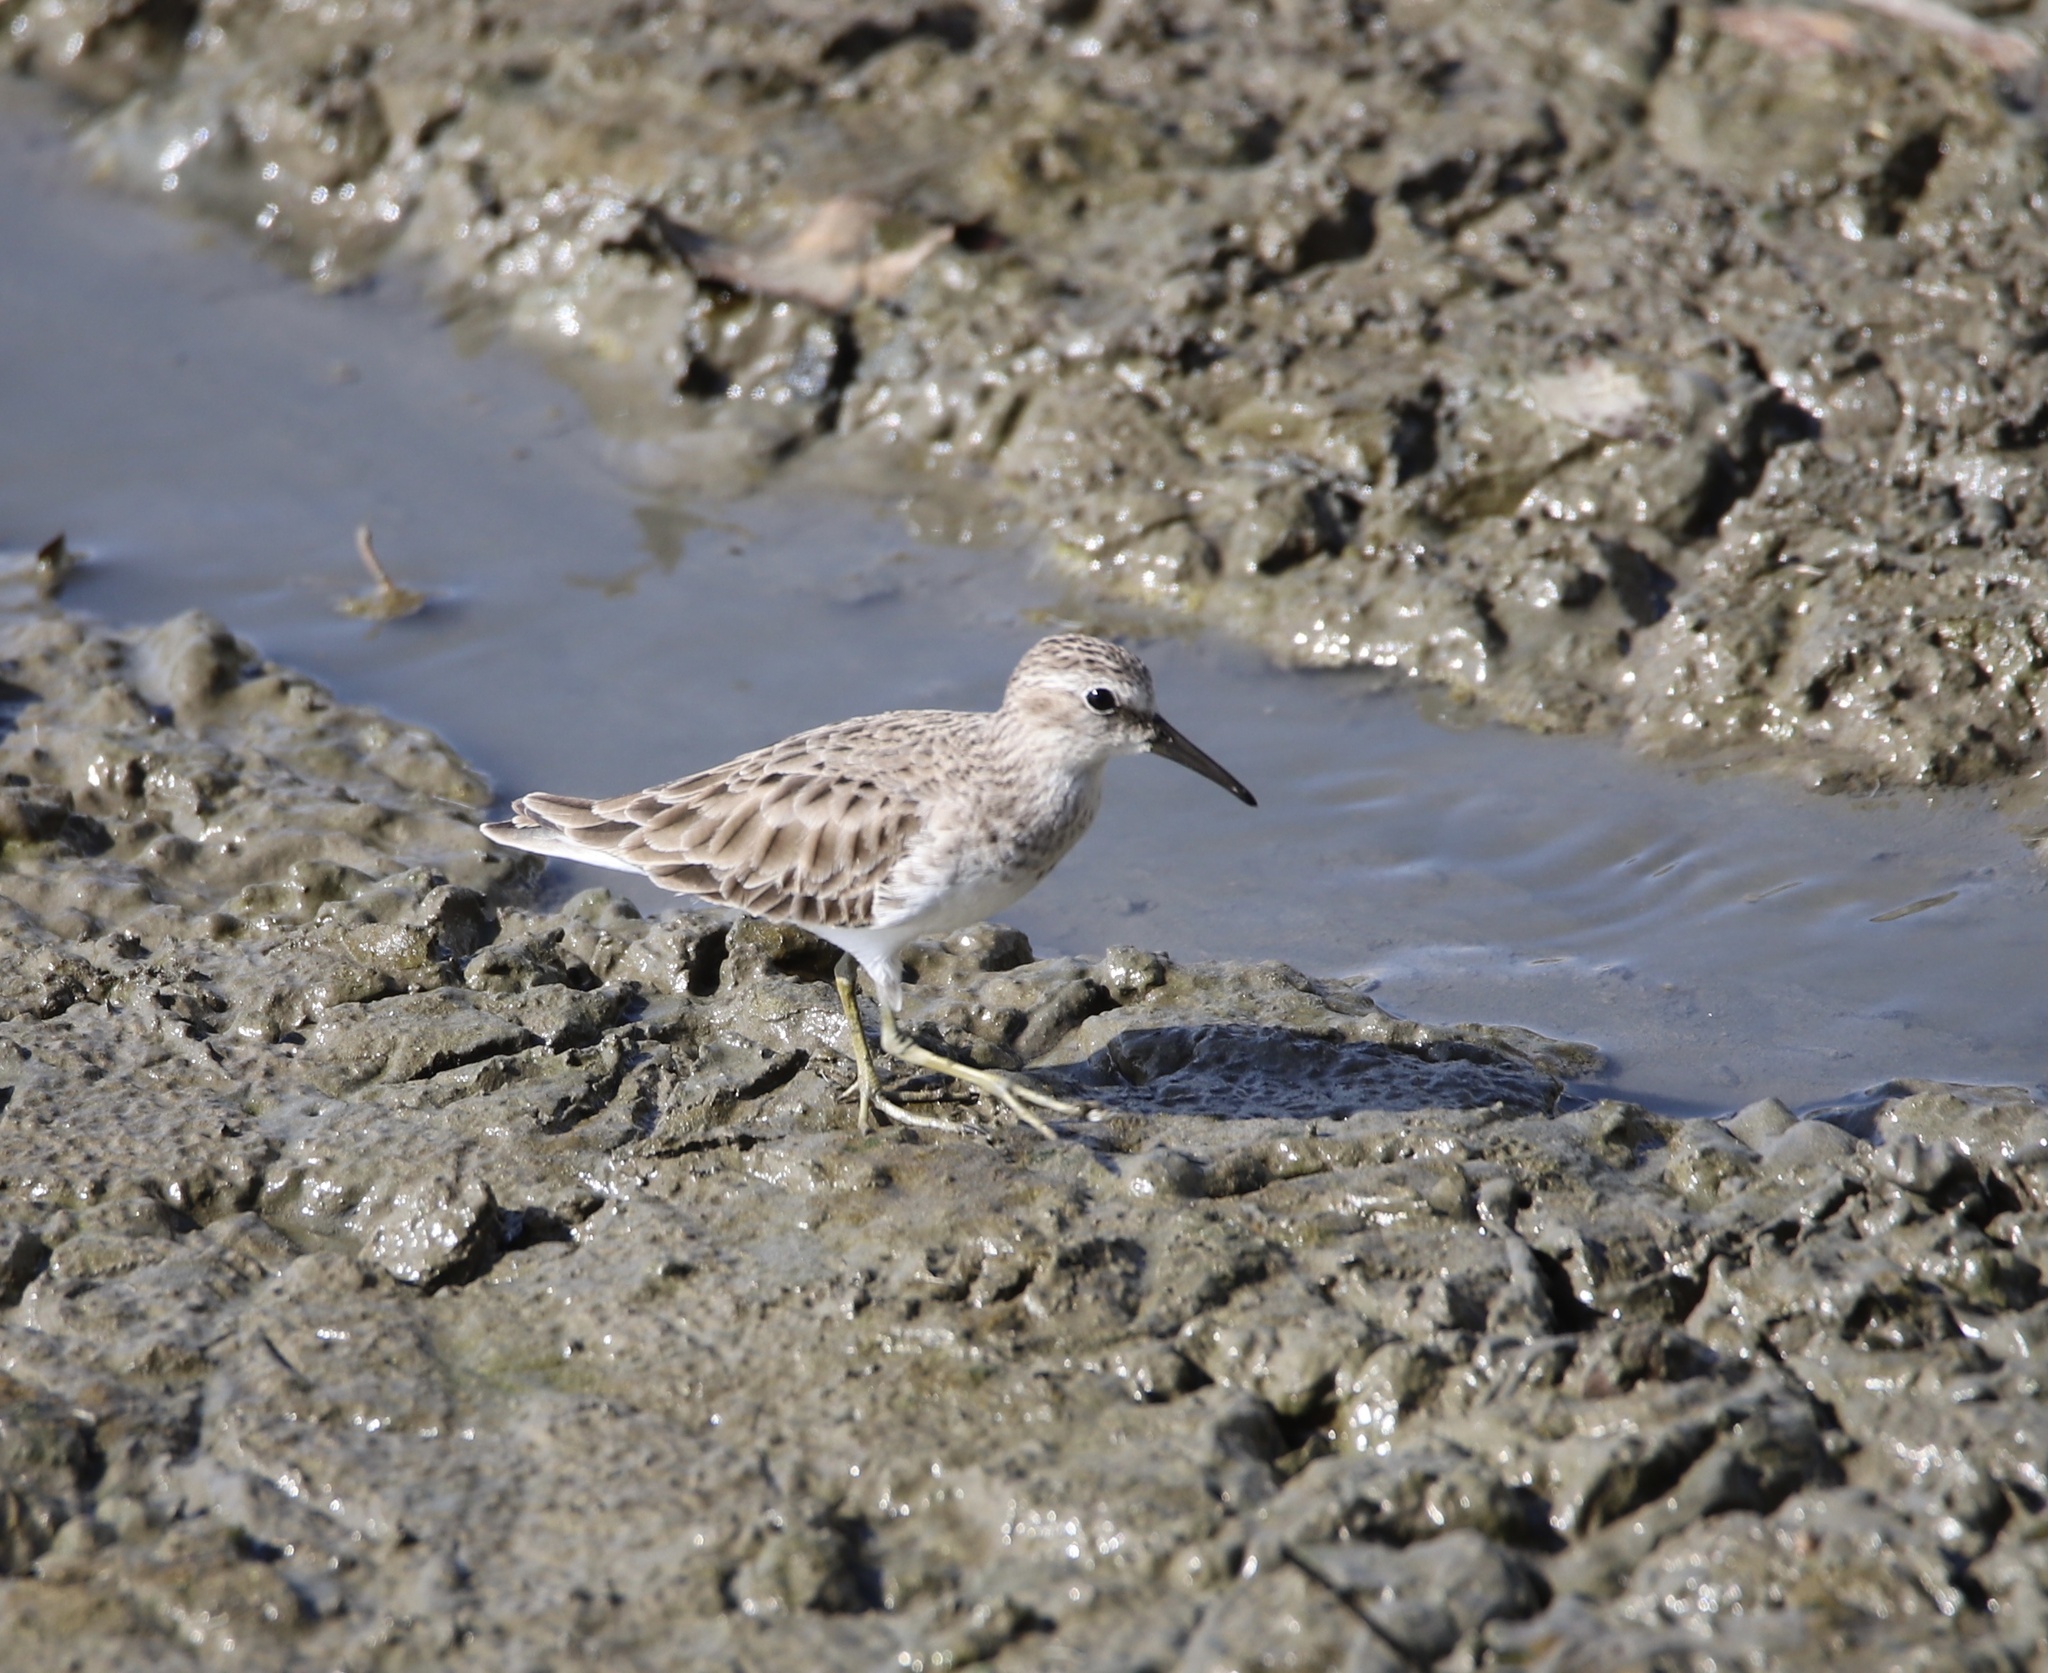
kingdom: Animalia
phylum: Chordata
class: Aves
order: Charadriiformes
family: Scolopacidae
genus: Calidris
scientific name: Calidris minutilla
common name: Least sandpiper
